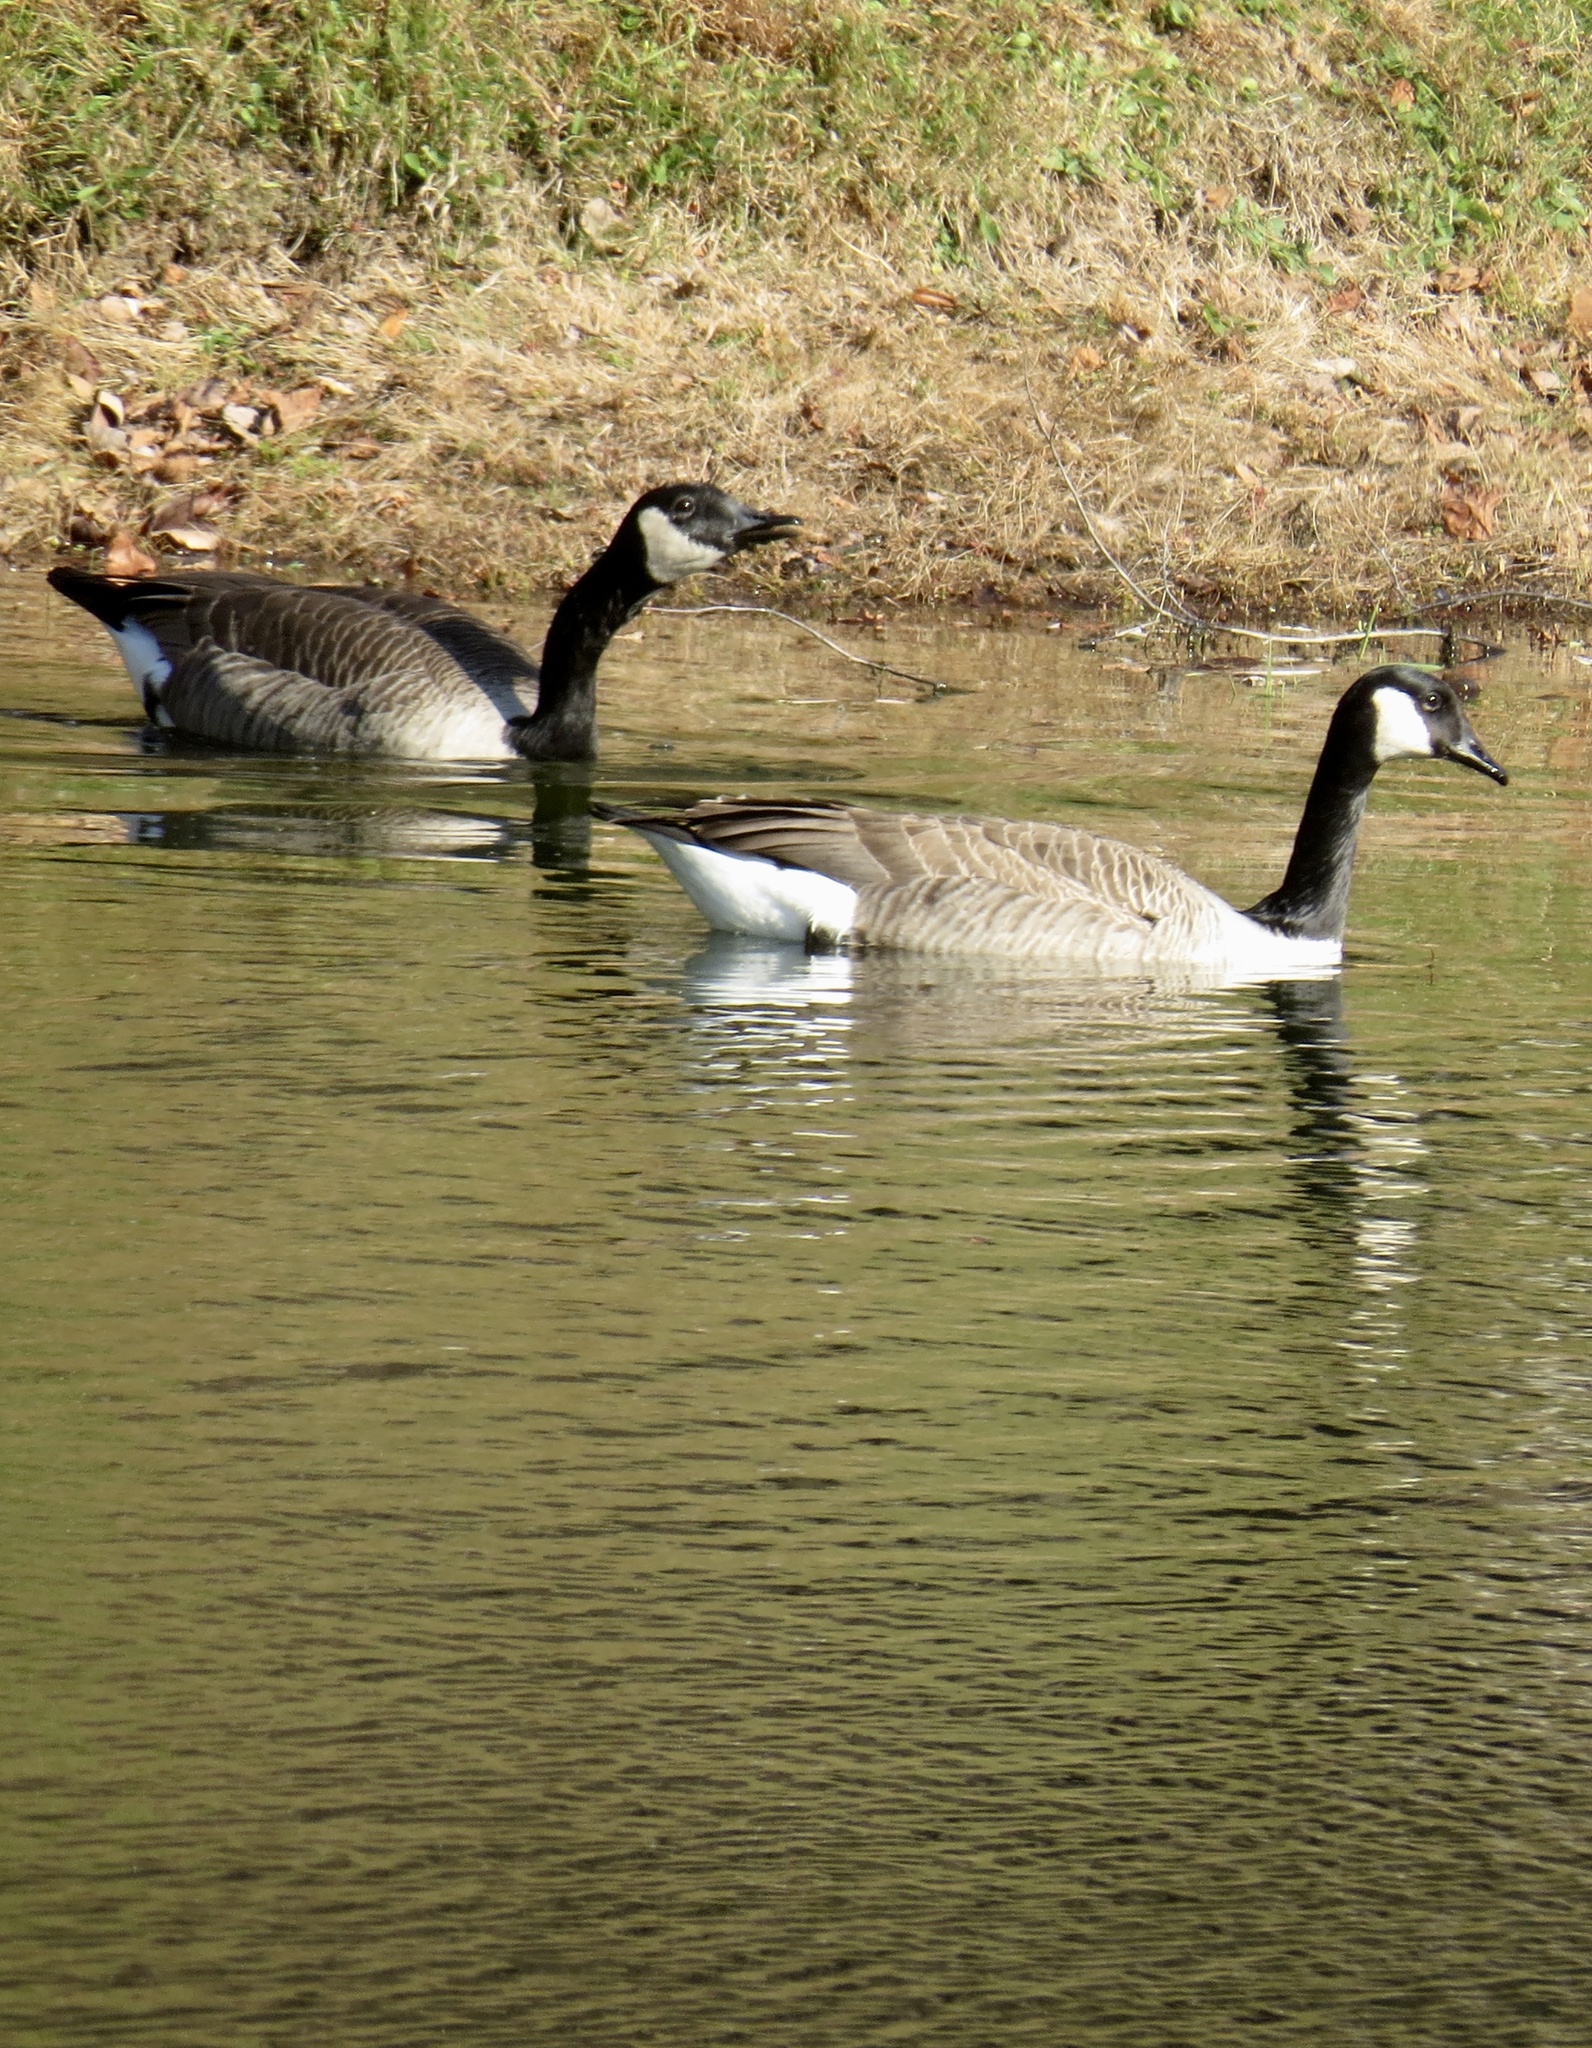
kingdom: Animalia
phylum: Chordata
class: Aves
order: Anseriformes
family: Anatidae
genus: Branta
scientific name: Branta canadensis
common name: Canada goose
